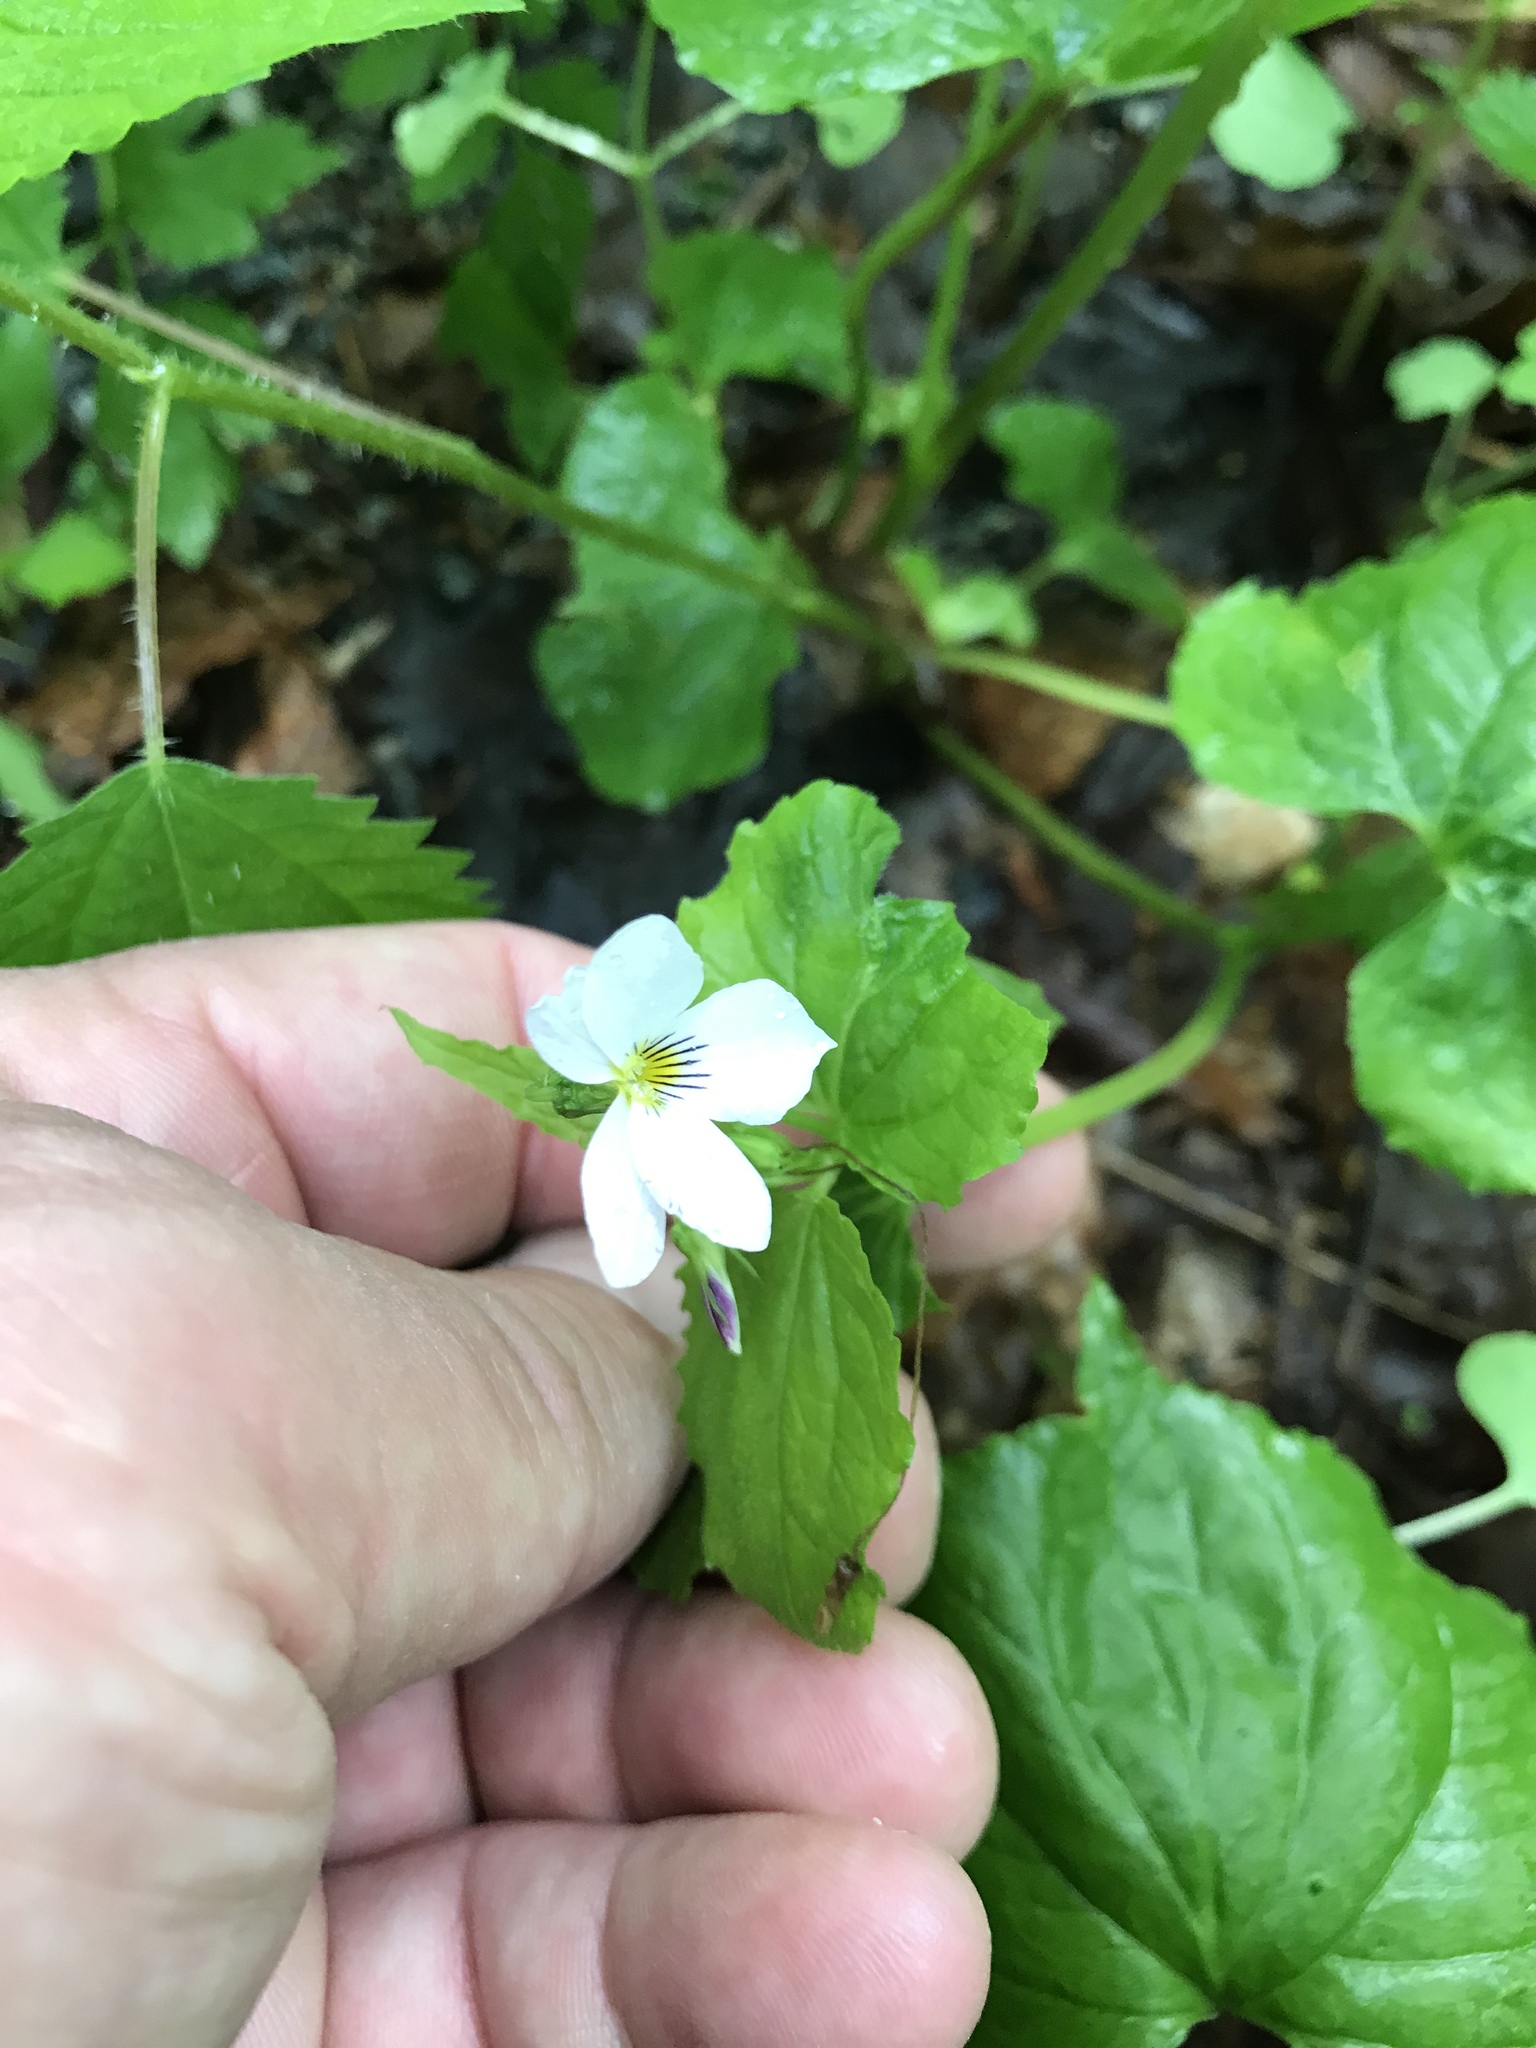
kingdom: Plantae
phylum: Tracheophyta
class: Magnoliopsida
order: Malpighiales
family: Violaceae
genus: Viola
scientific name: Viola canadensis
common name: Canada violet
